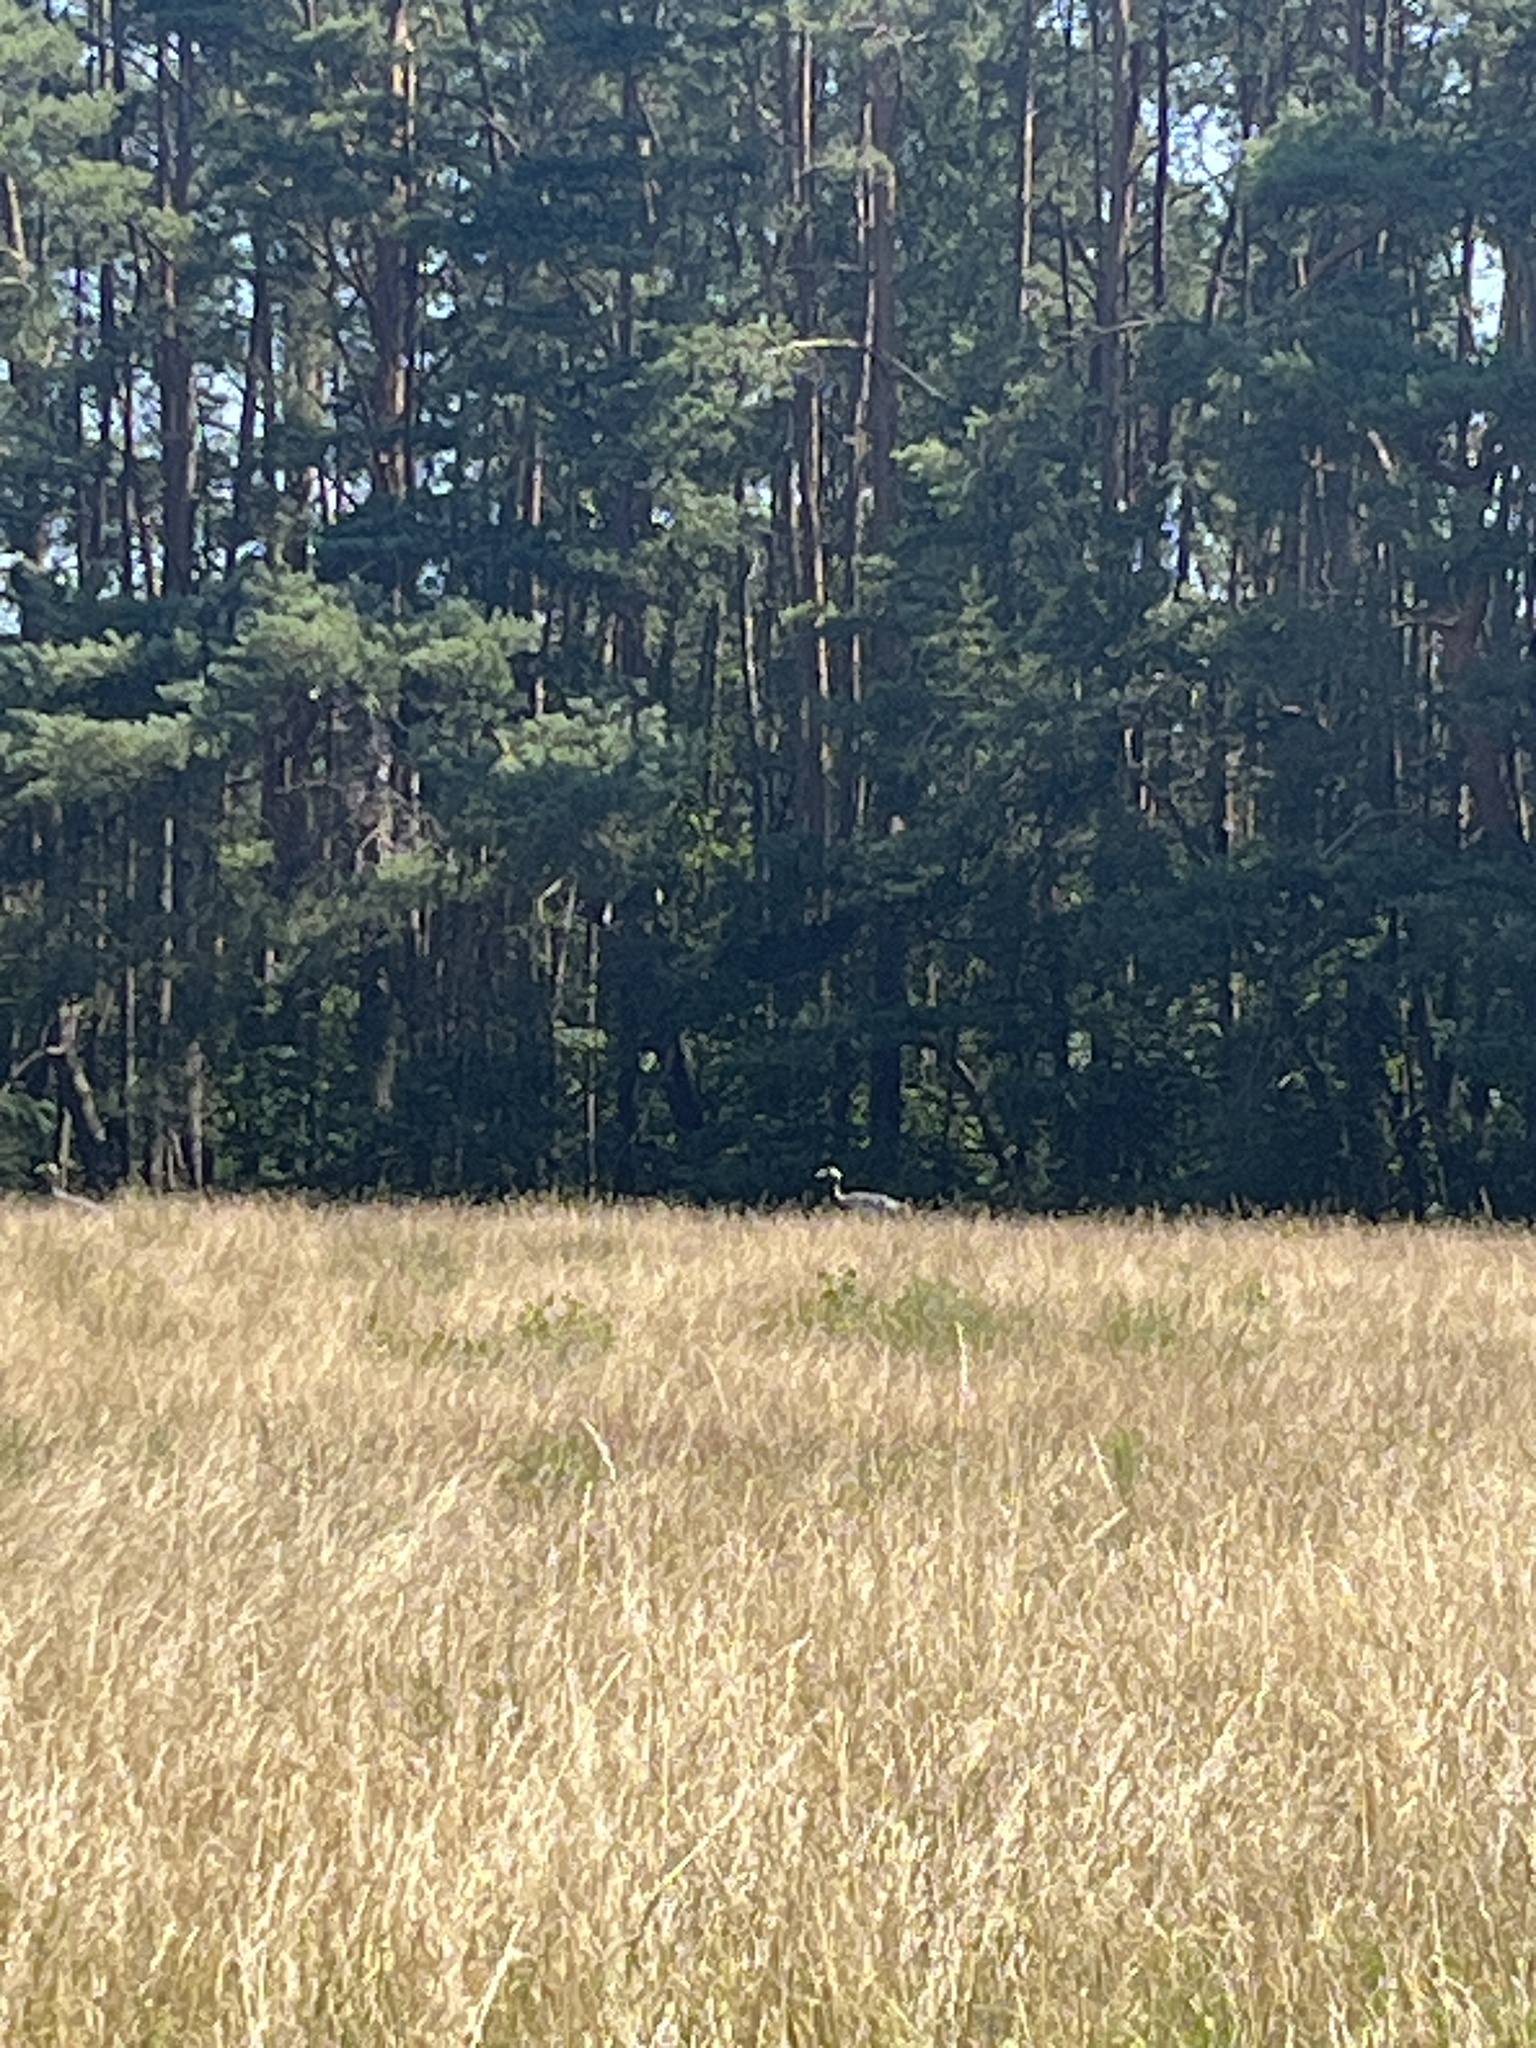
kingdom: Animalia
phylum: Chordata
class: Aves
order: Gruiformes
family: Gruidae
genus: Grus
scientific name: Grus grus
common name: Common crane
